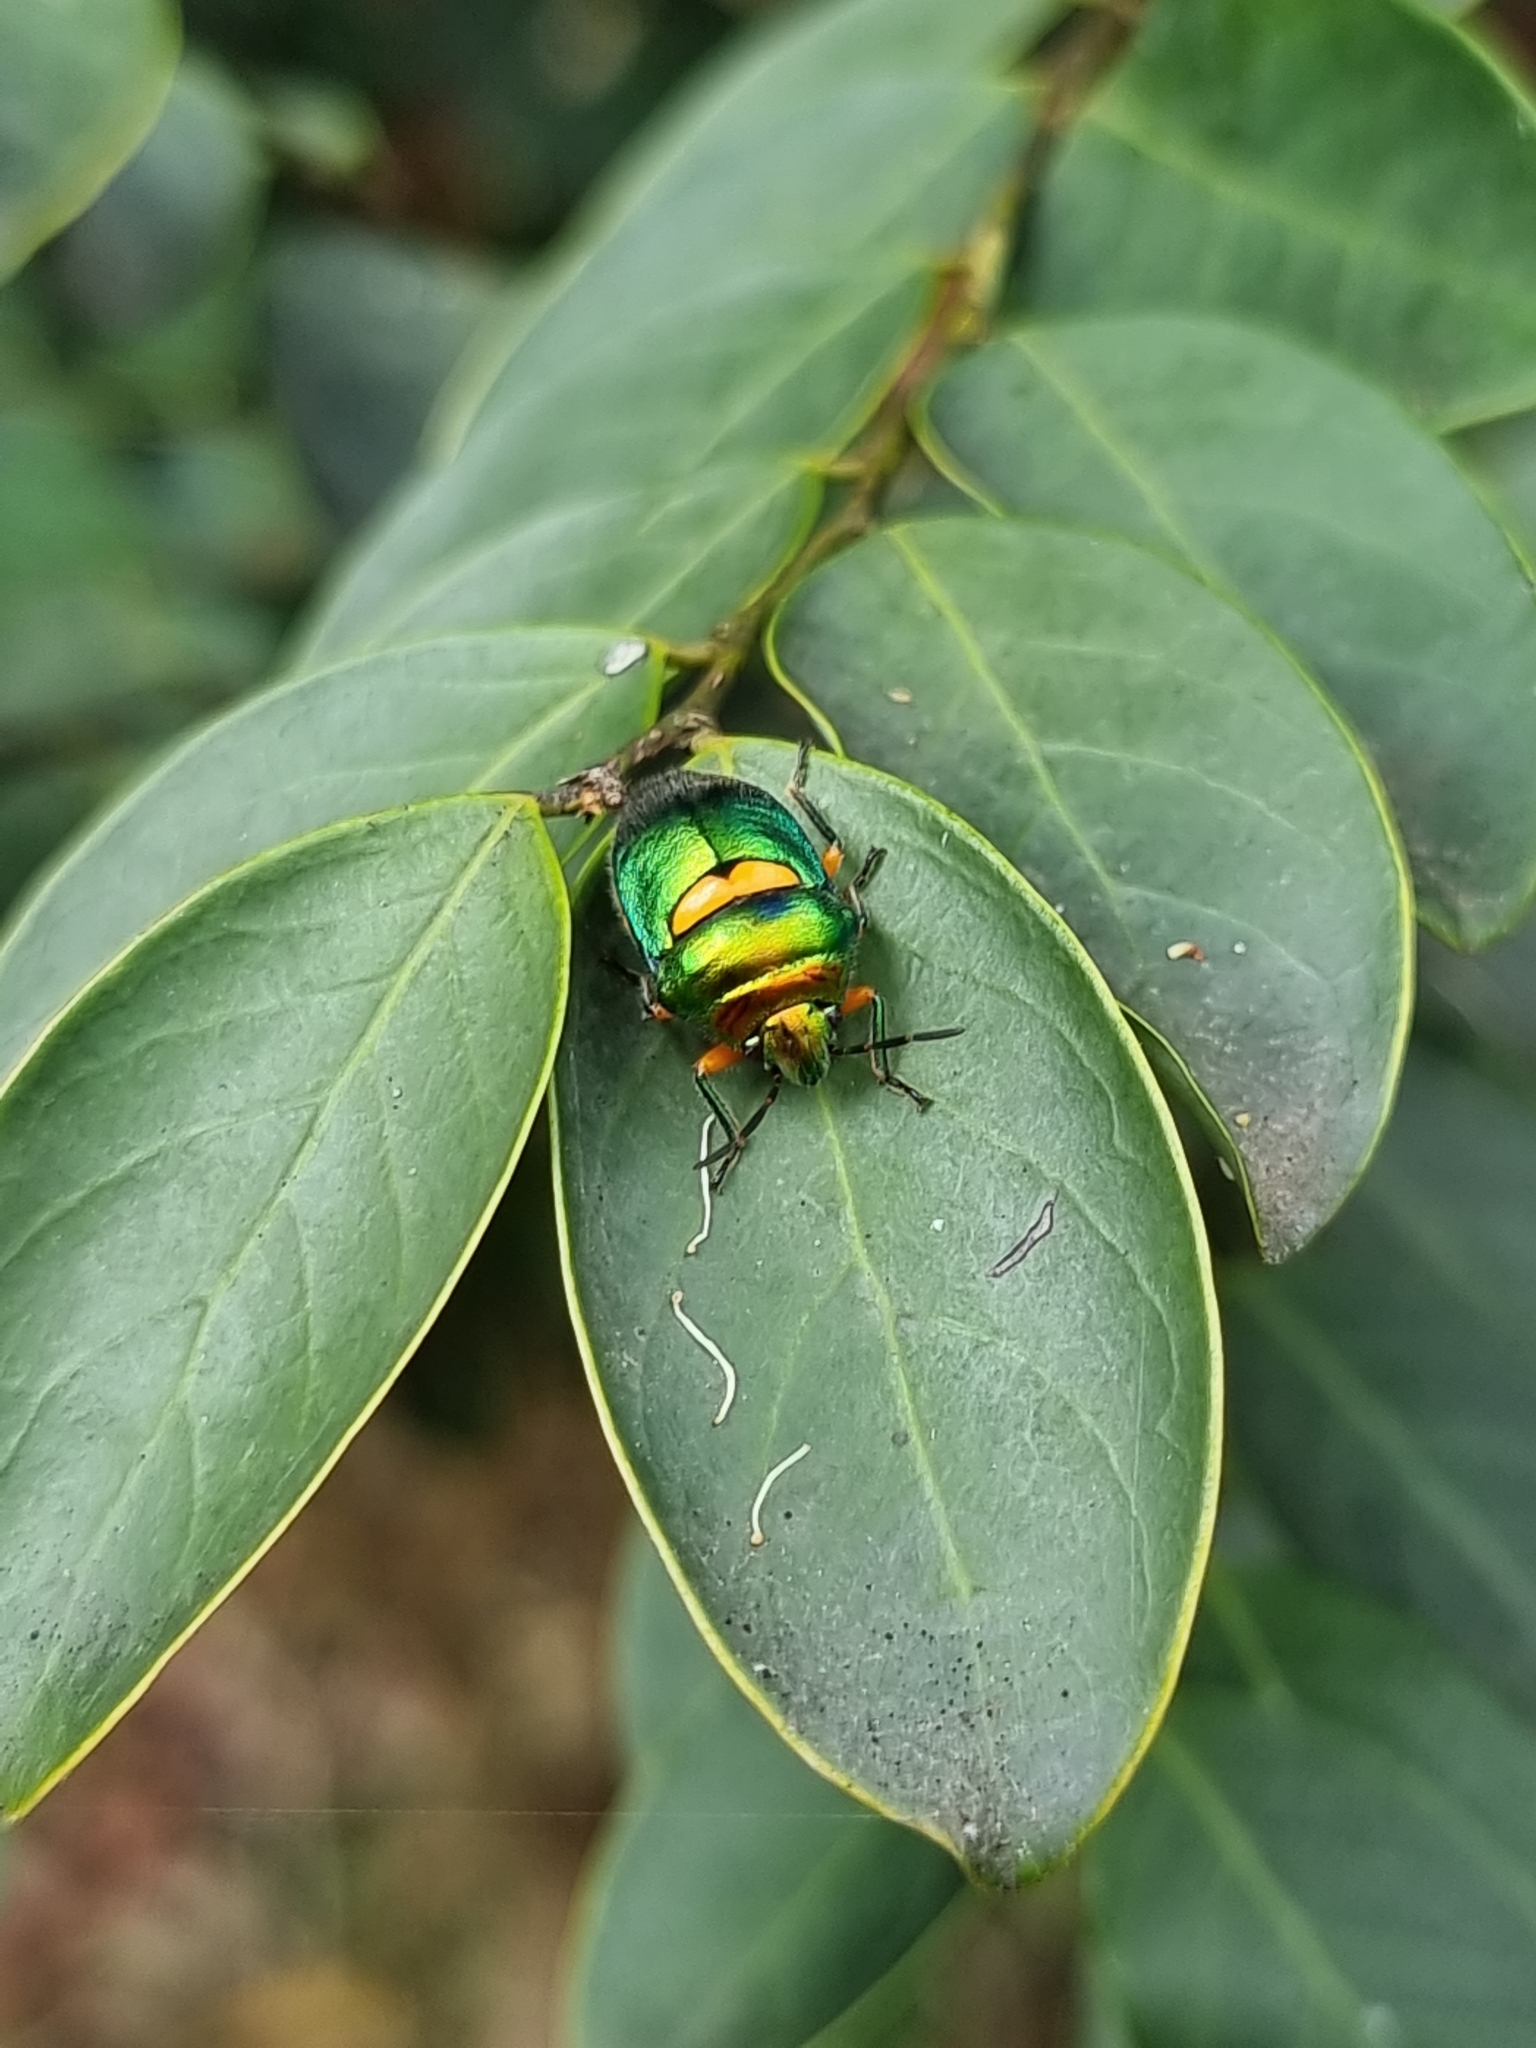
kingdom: Animalia
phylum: Arthropoda
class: Insecta
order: Hemiptera
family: Scutelleridae
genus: Lampromicra
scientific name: Lampromicra senator
